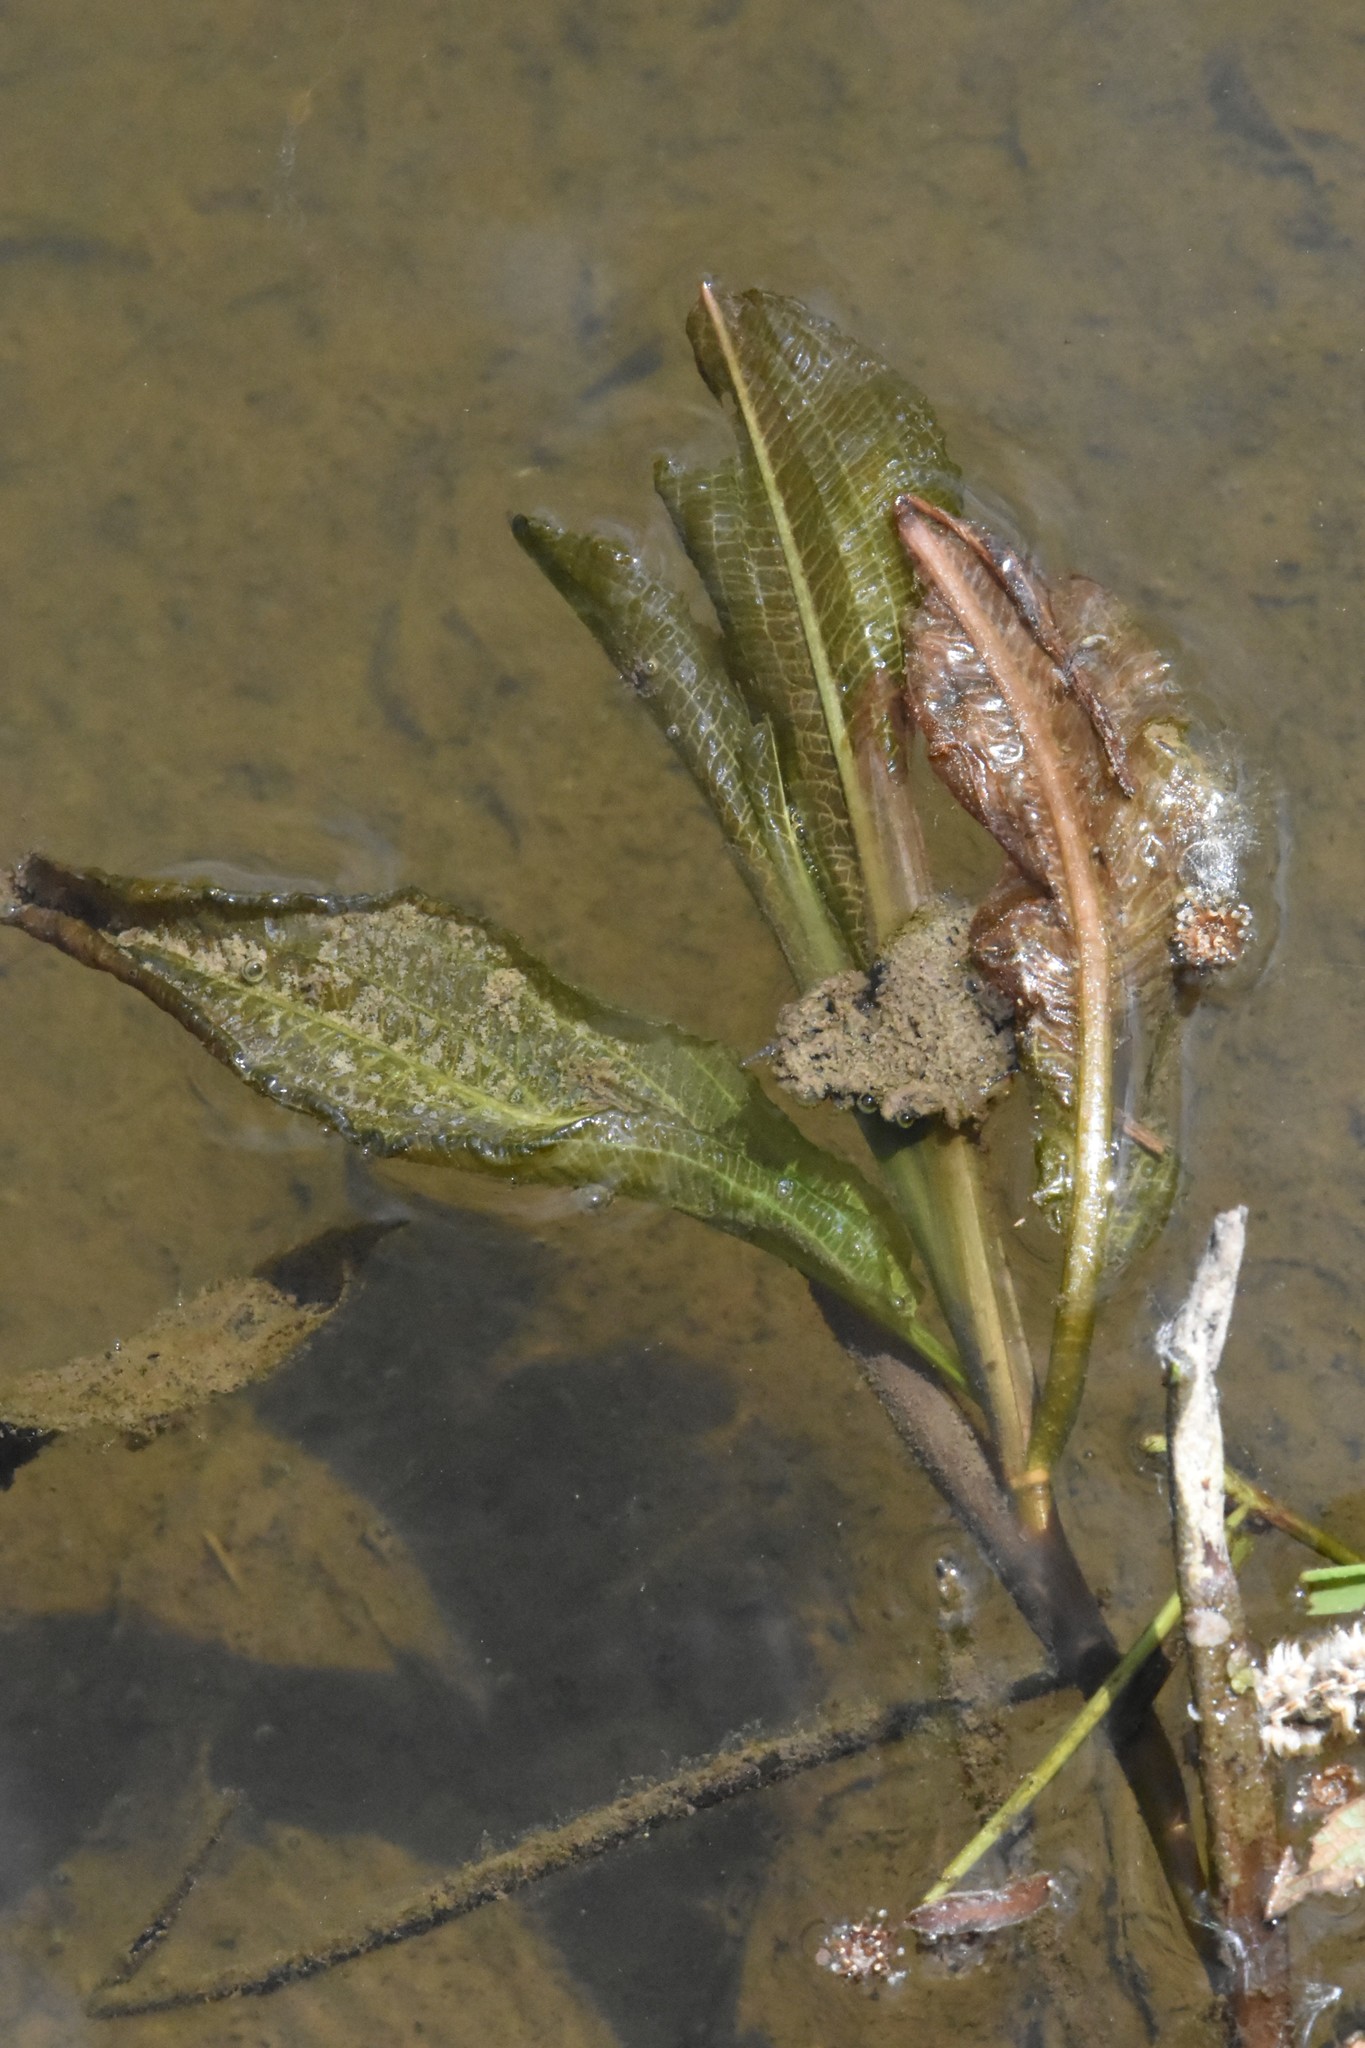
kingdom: Plantae
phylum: Tracheophyta
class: Liliopsida
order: Alismatales
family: Potamogetonaceae
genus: Potamogeton
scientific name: Potamogeton lucens
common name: Shining pondweed
